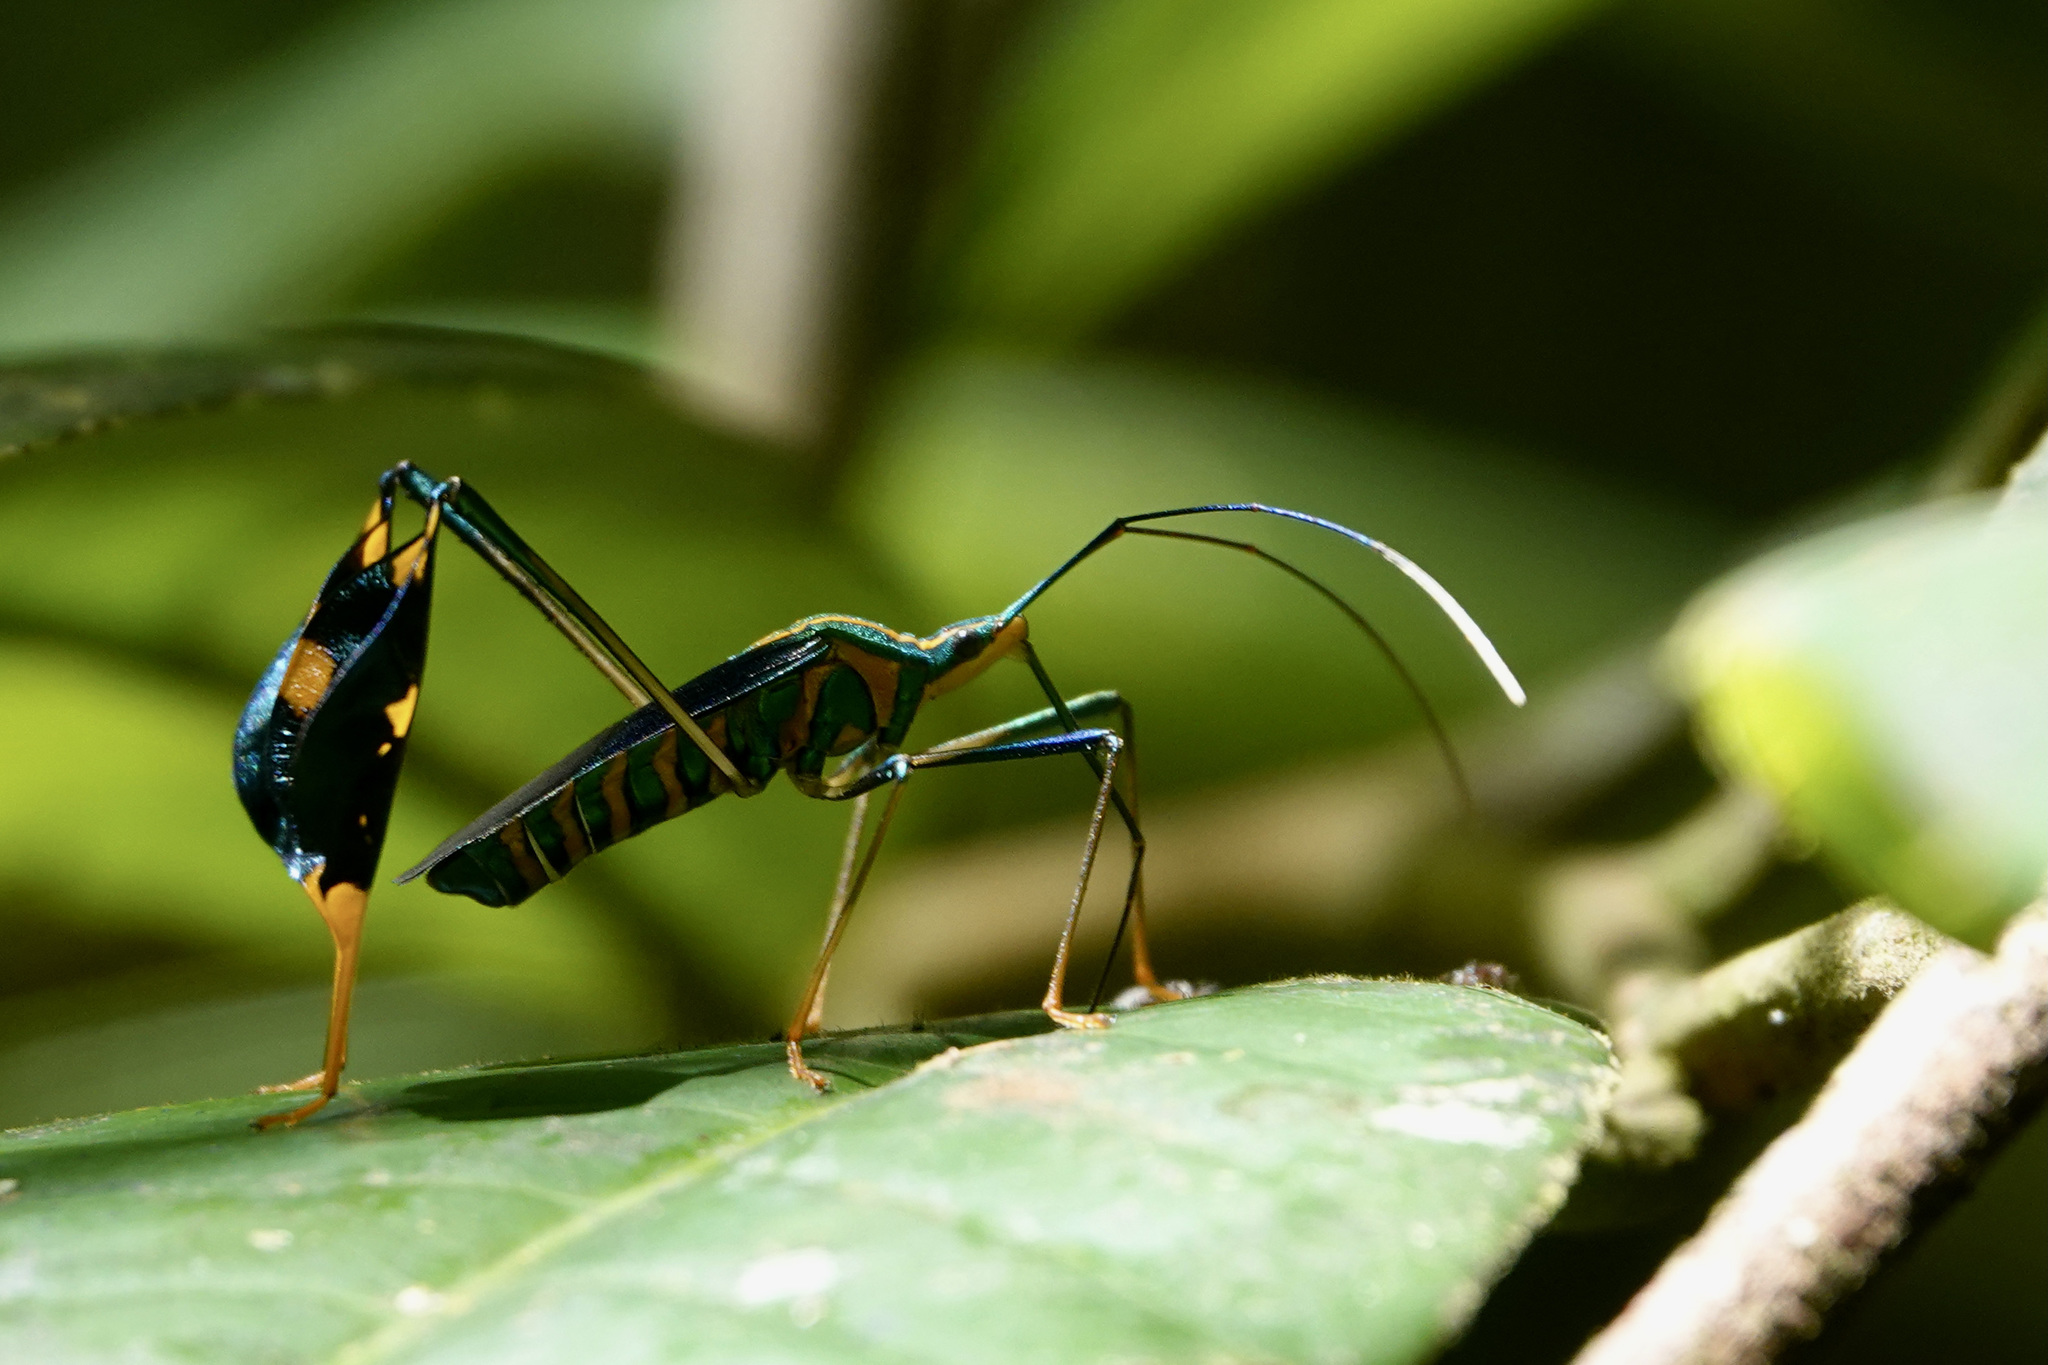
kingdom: Animalia
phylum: Arthropoda
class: Insecta
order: Hemiptera
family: Coreidae
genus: Diactor
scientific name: Diactor bilineatus
